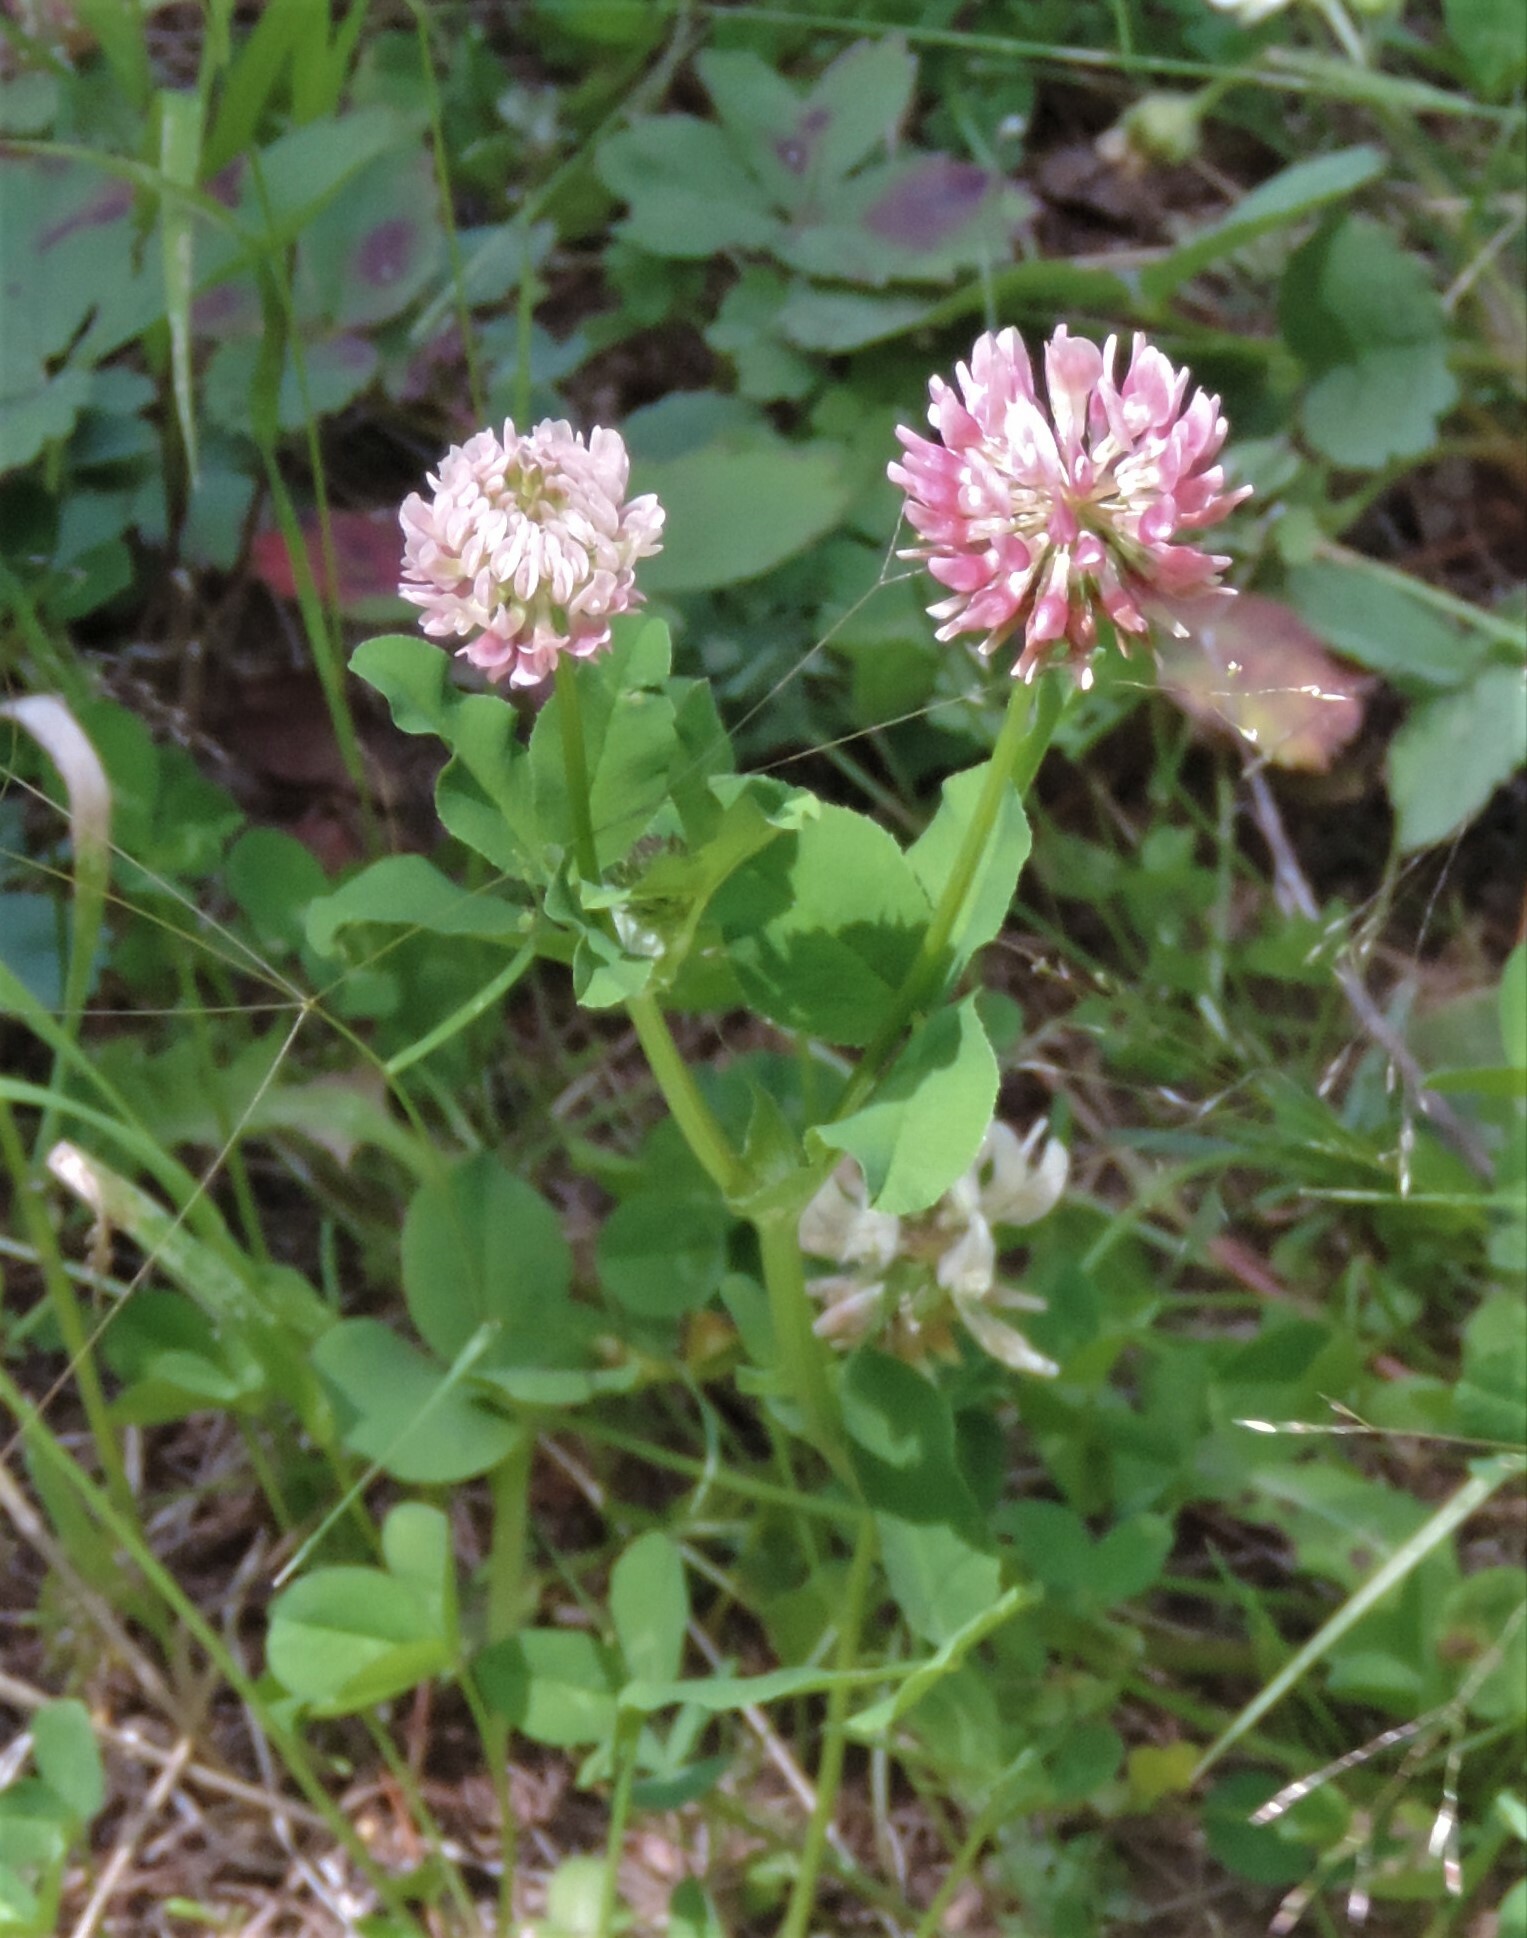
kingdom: Plantae
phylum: Tracheophyta
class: Magnoliopsida
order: Fabales
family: Fabaceae
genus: Trifolium
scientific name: Trifolium hybridum
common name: Alsike clover
